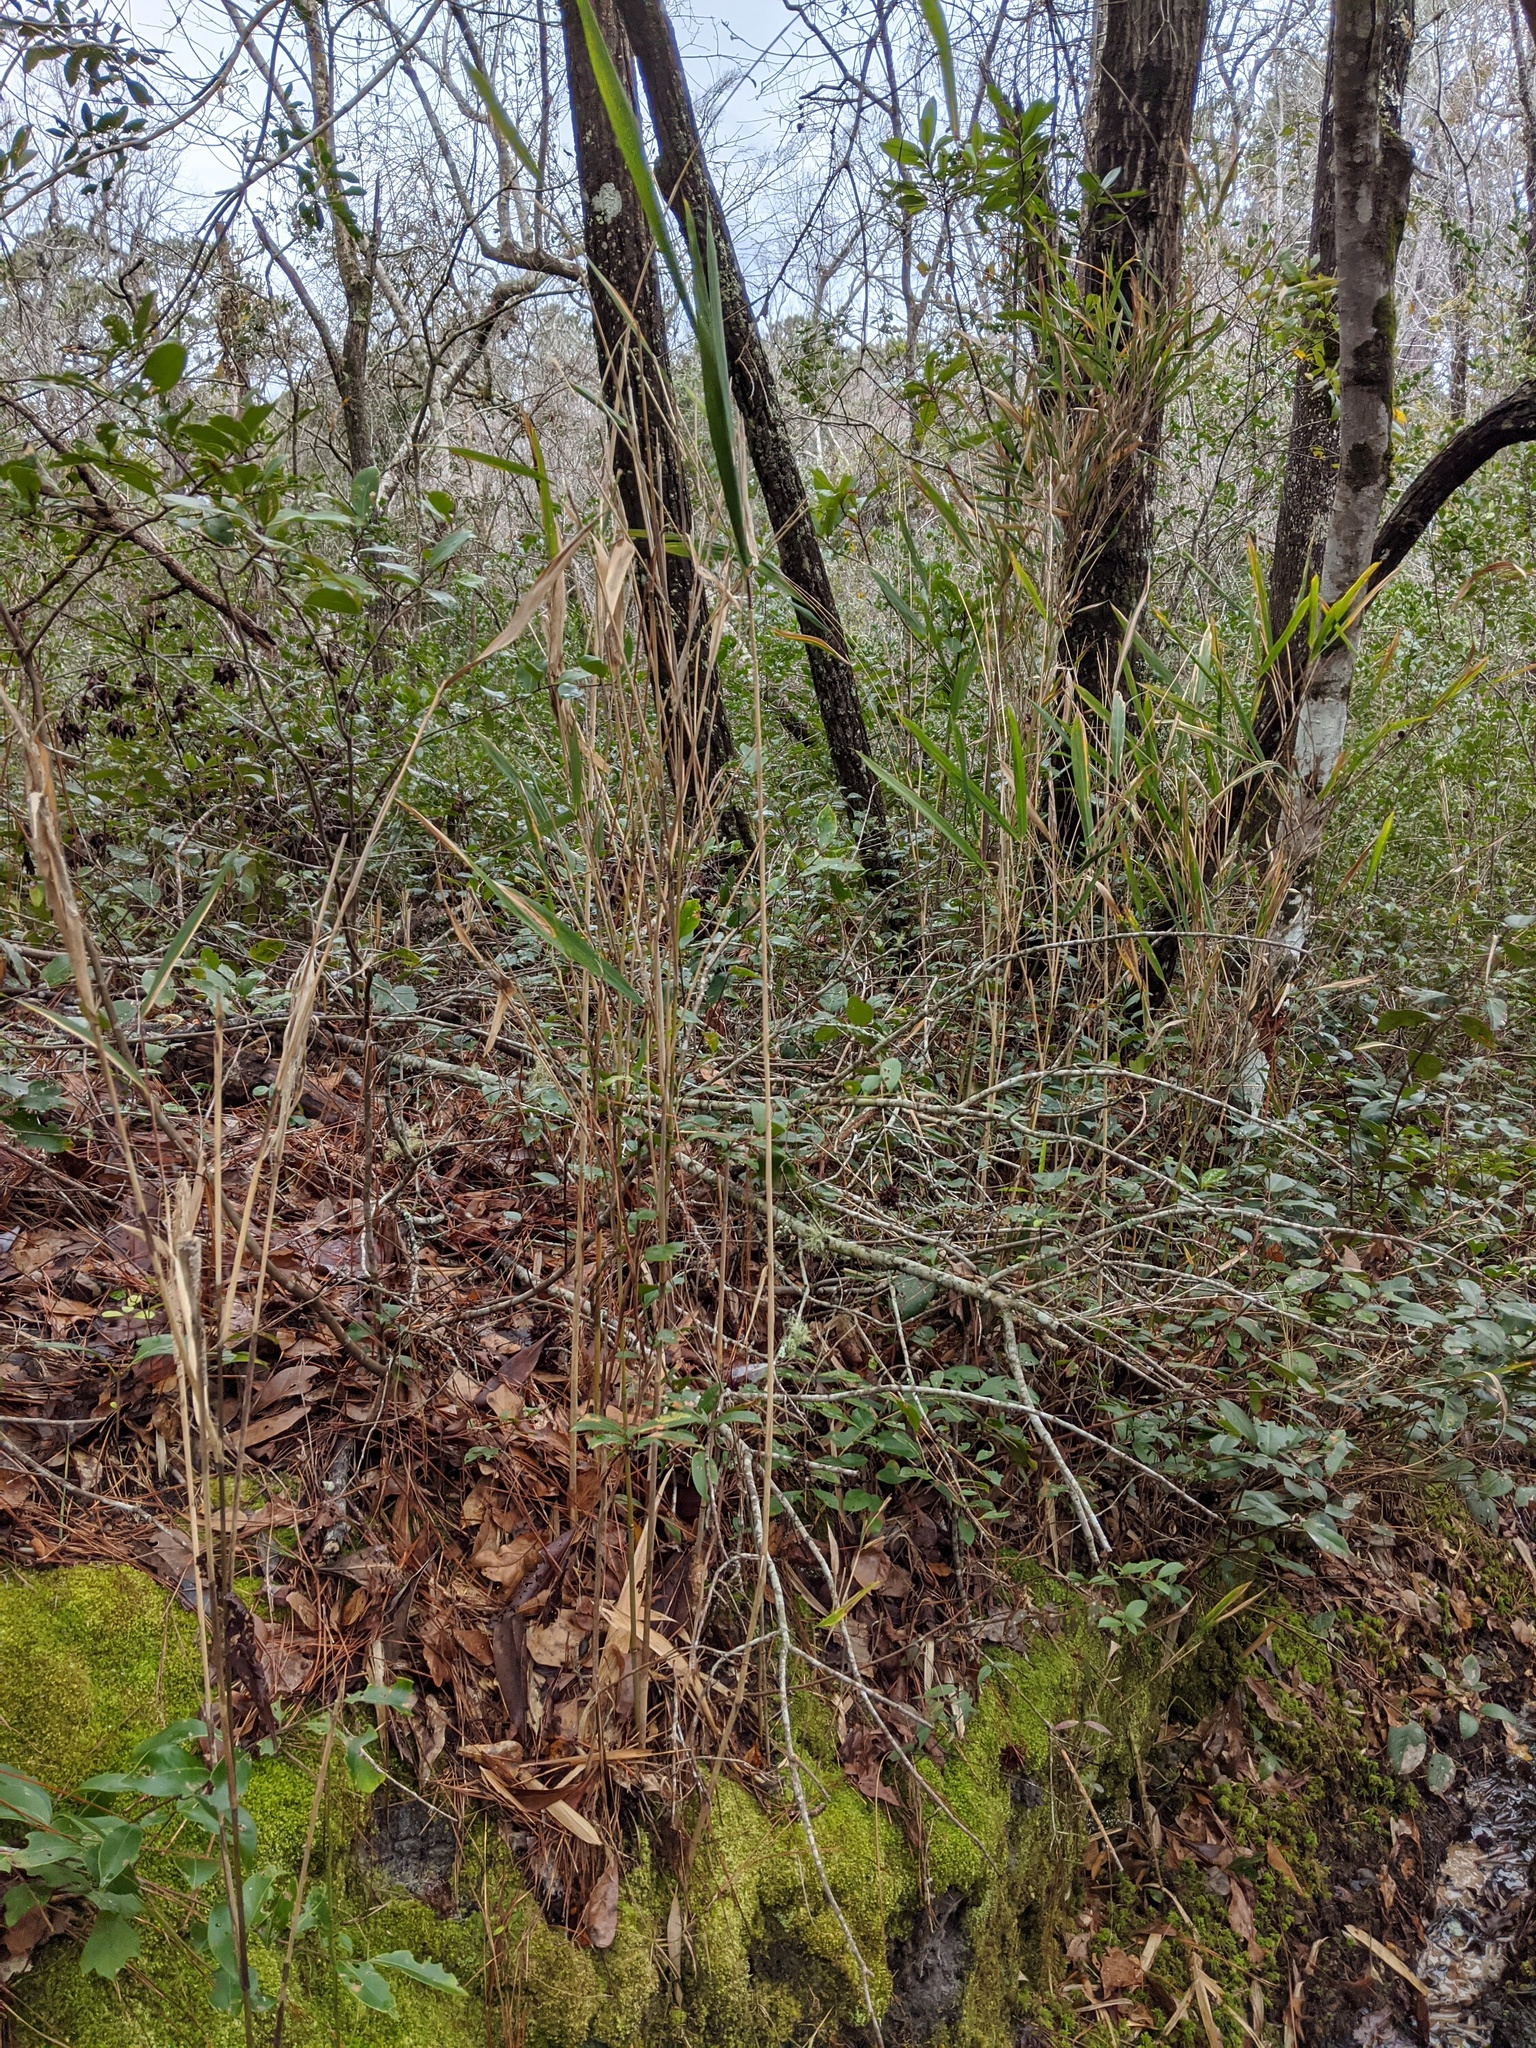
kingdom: Plantae
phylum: Tracheophyta
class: Liliopsida
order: Poales
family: Poaceae
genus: Arundinaria
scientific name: Arundinaria tecta
